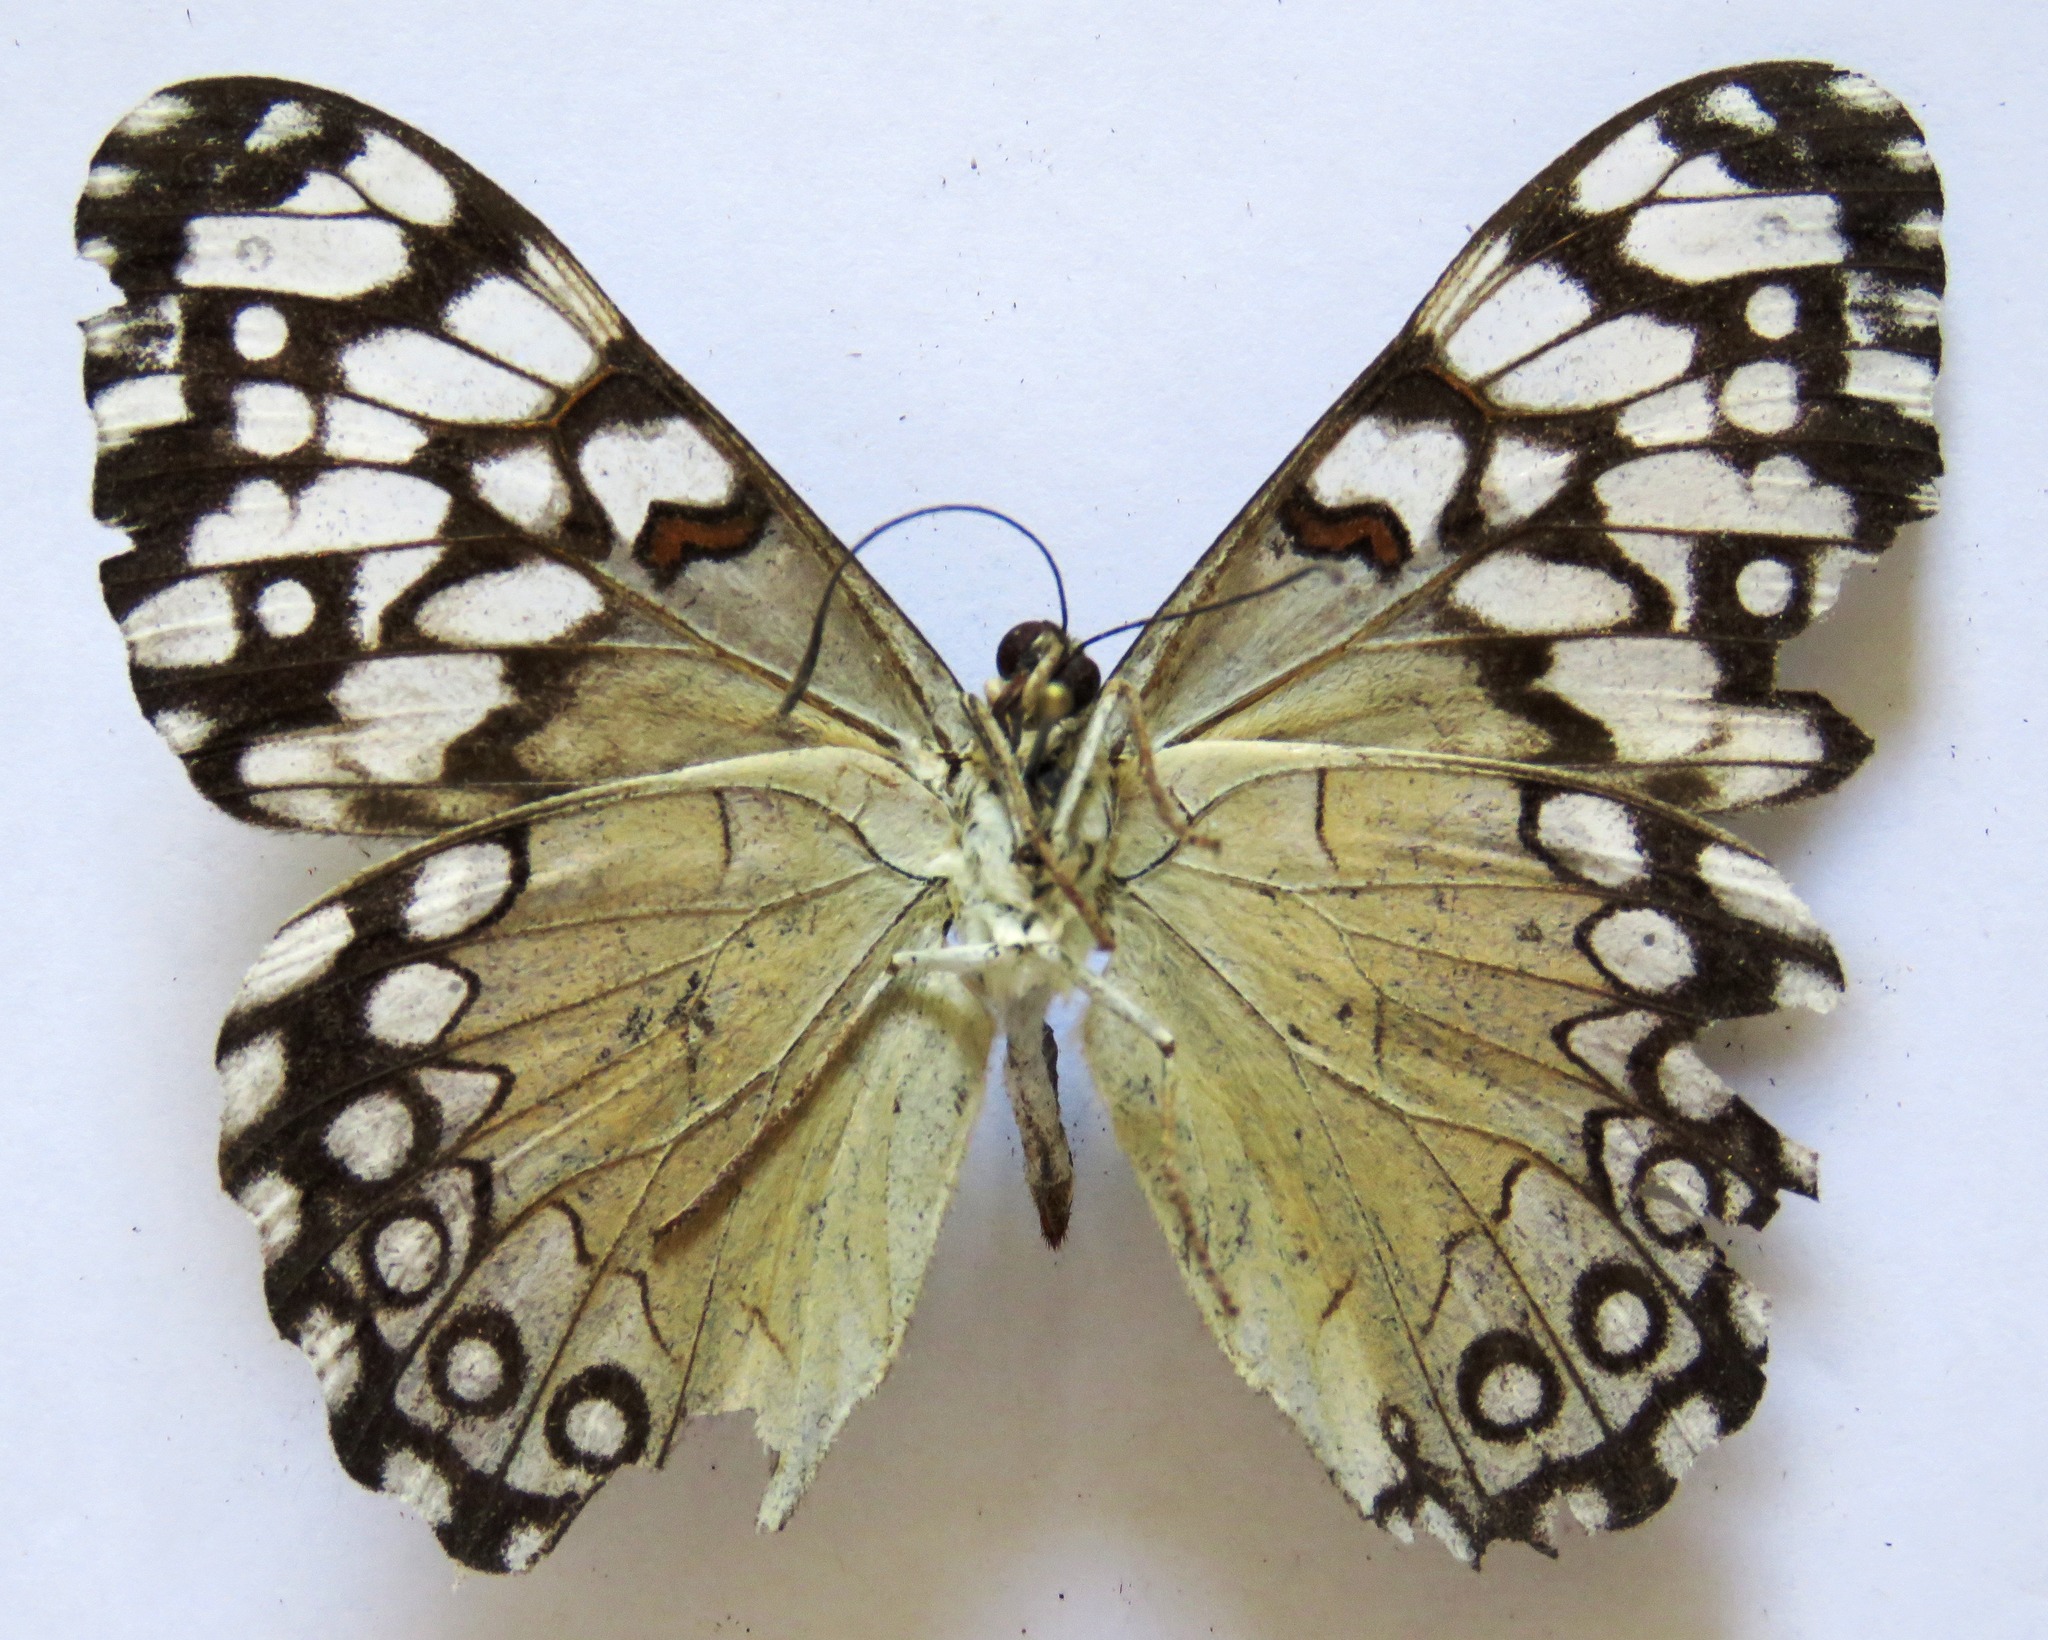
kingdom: Animalia
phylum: Arthropoda
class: Insecta
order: Lepidoptera
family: Nymphalidae
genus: Hamadryas
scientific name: Hamadryas guatemalena
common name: Guatemalan cracker
